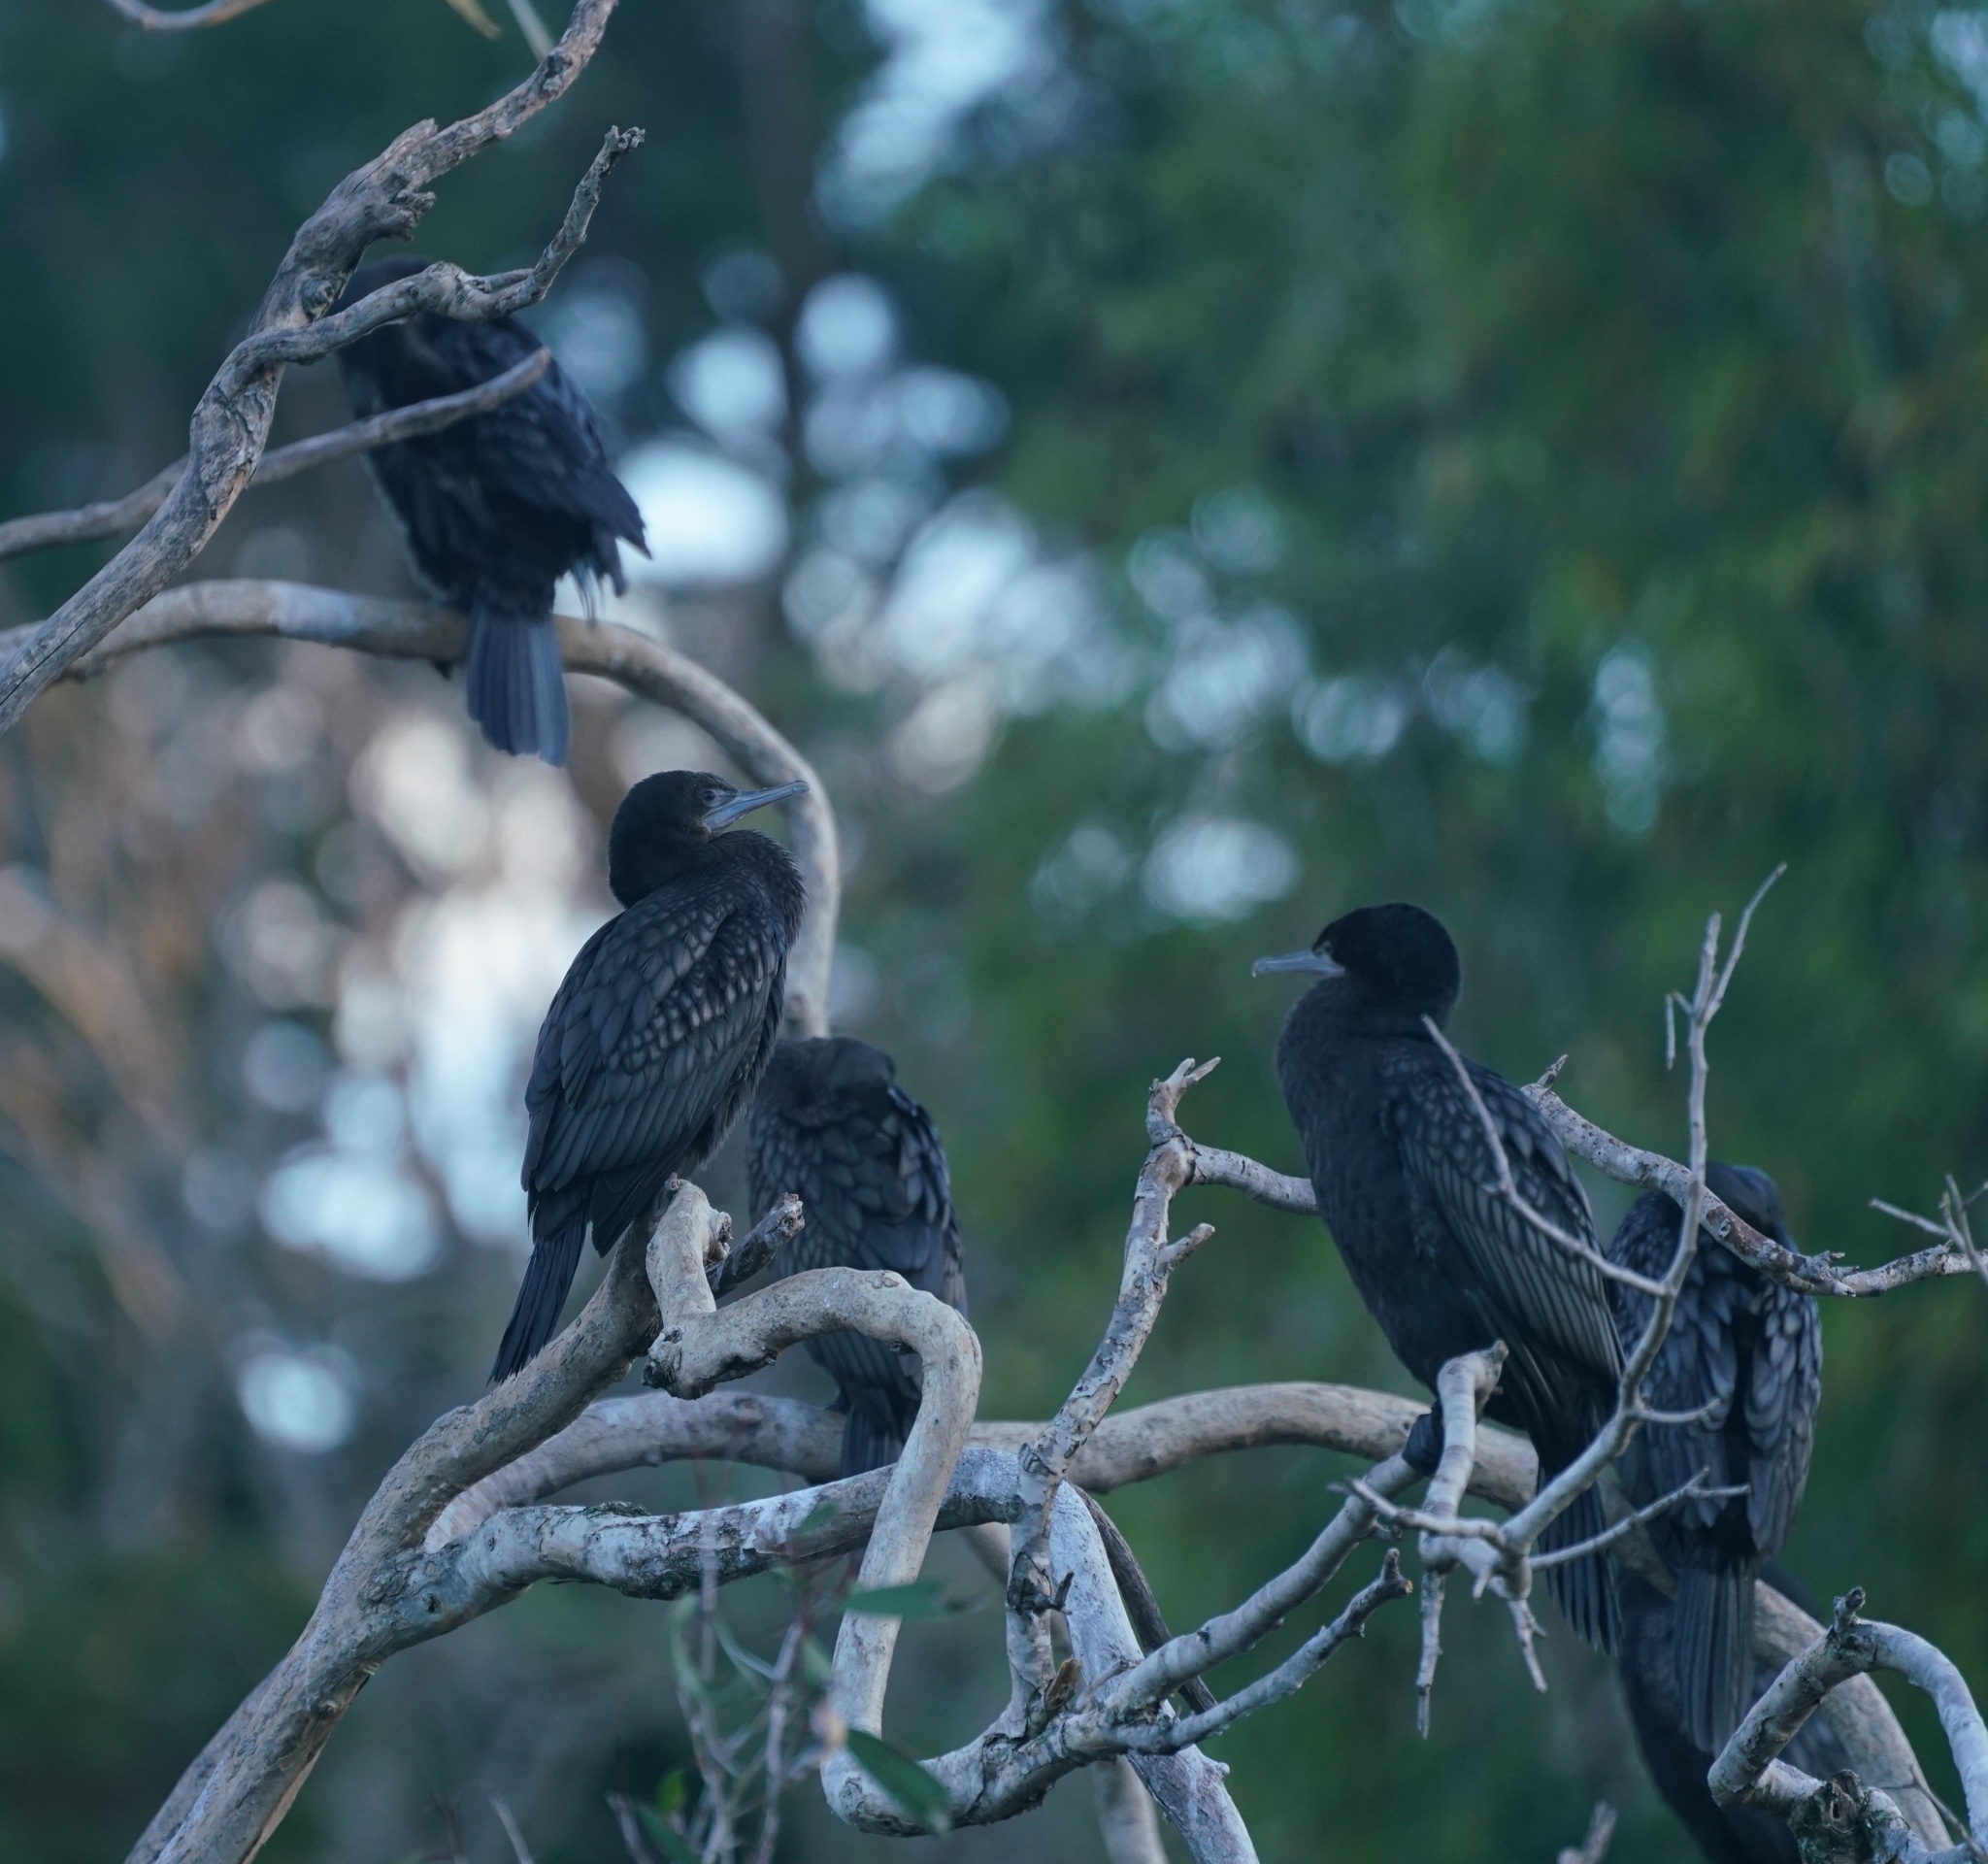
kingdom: Animalia
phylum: Chordata
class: Aves
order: Suliformes
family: Phalacrocoracidae
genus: Phalacrocorax
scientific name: Phalacrocorax sulcirostris
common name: Little black cormorant
